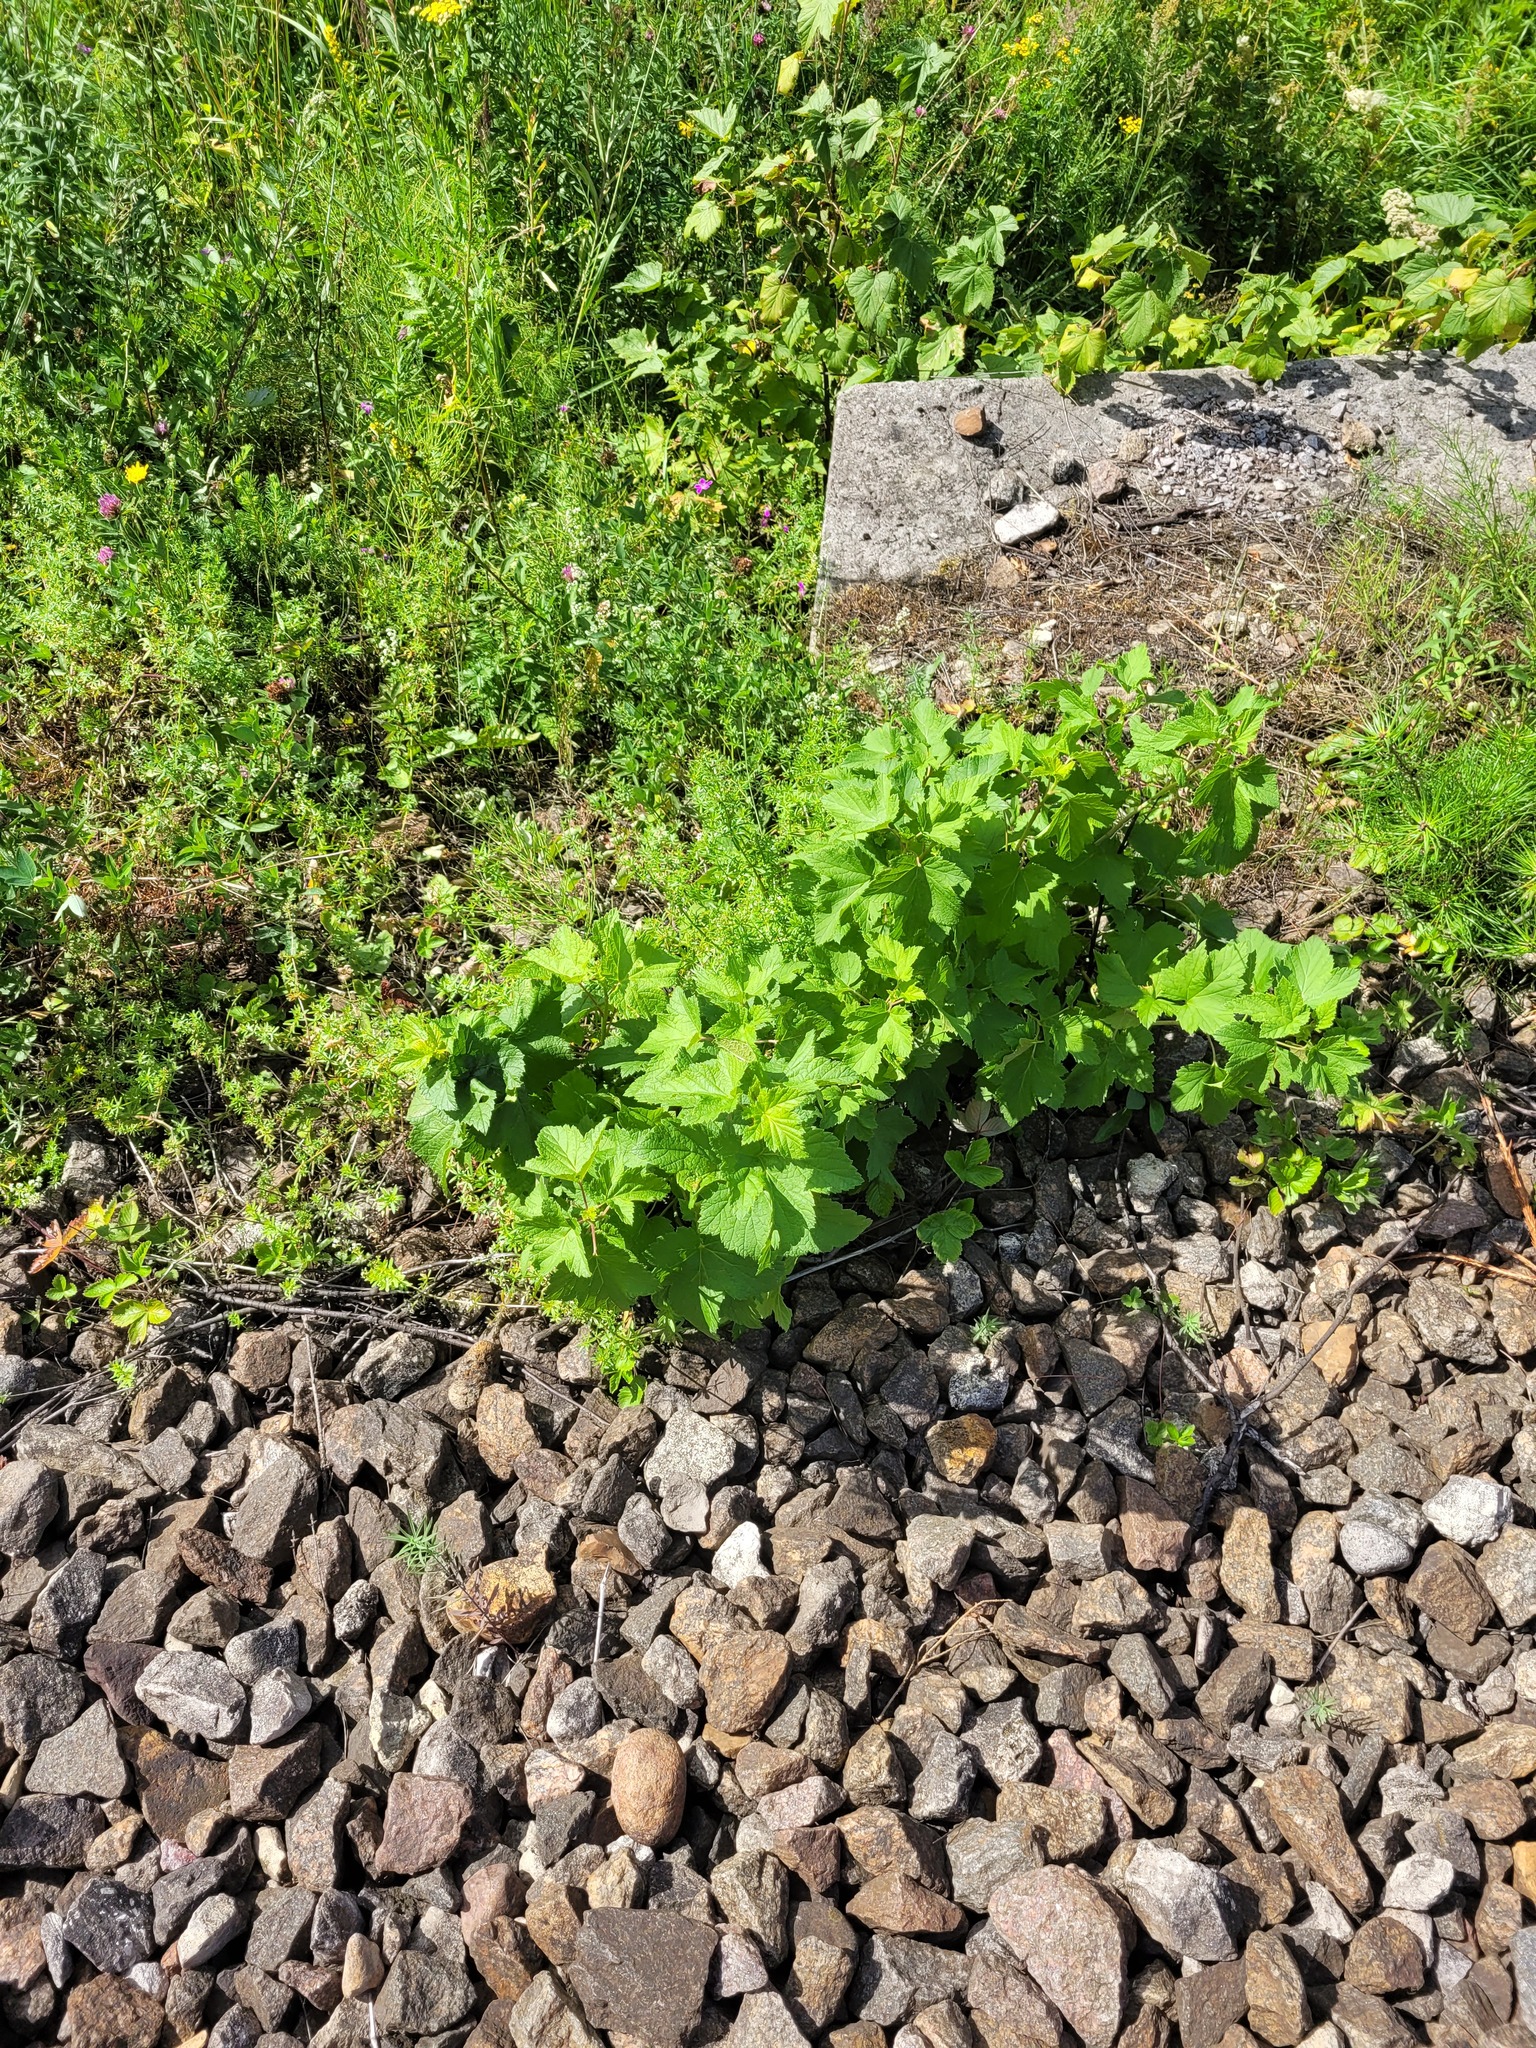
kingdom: Plantae
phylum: Tracheophyta
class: Magnoliopsida
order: Saxifragales
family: Grossulariaceae
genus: Ribes
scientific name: Ribes nigrum
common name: Black currant
